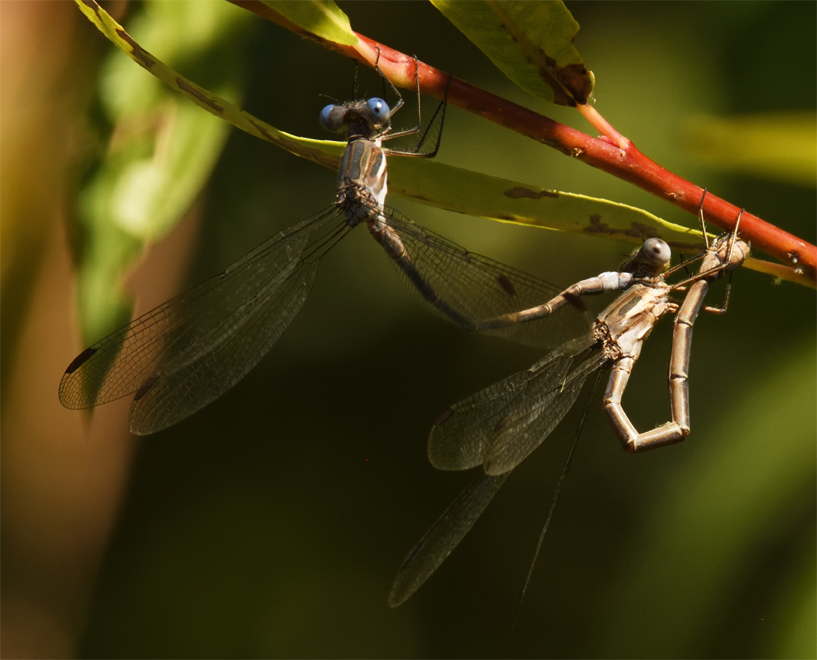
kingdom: Animalia
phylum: Arthropoda
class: Insecta
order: Odonata
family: Lestidae
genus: Archilestes
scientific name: Archilestes californicus
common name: California spreadwing
